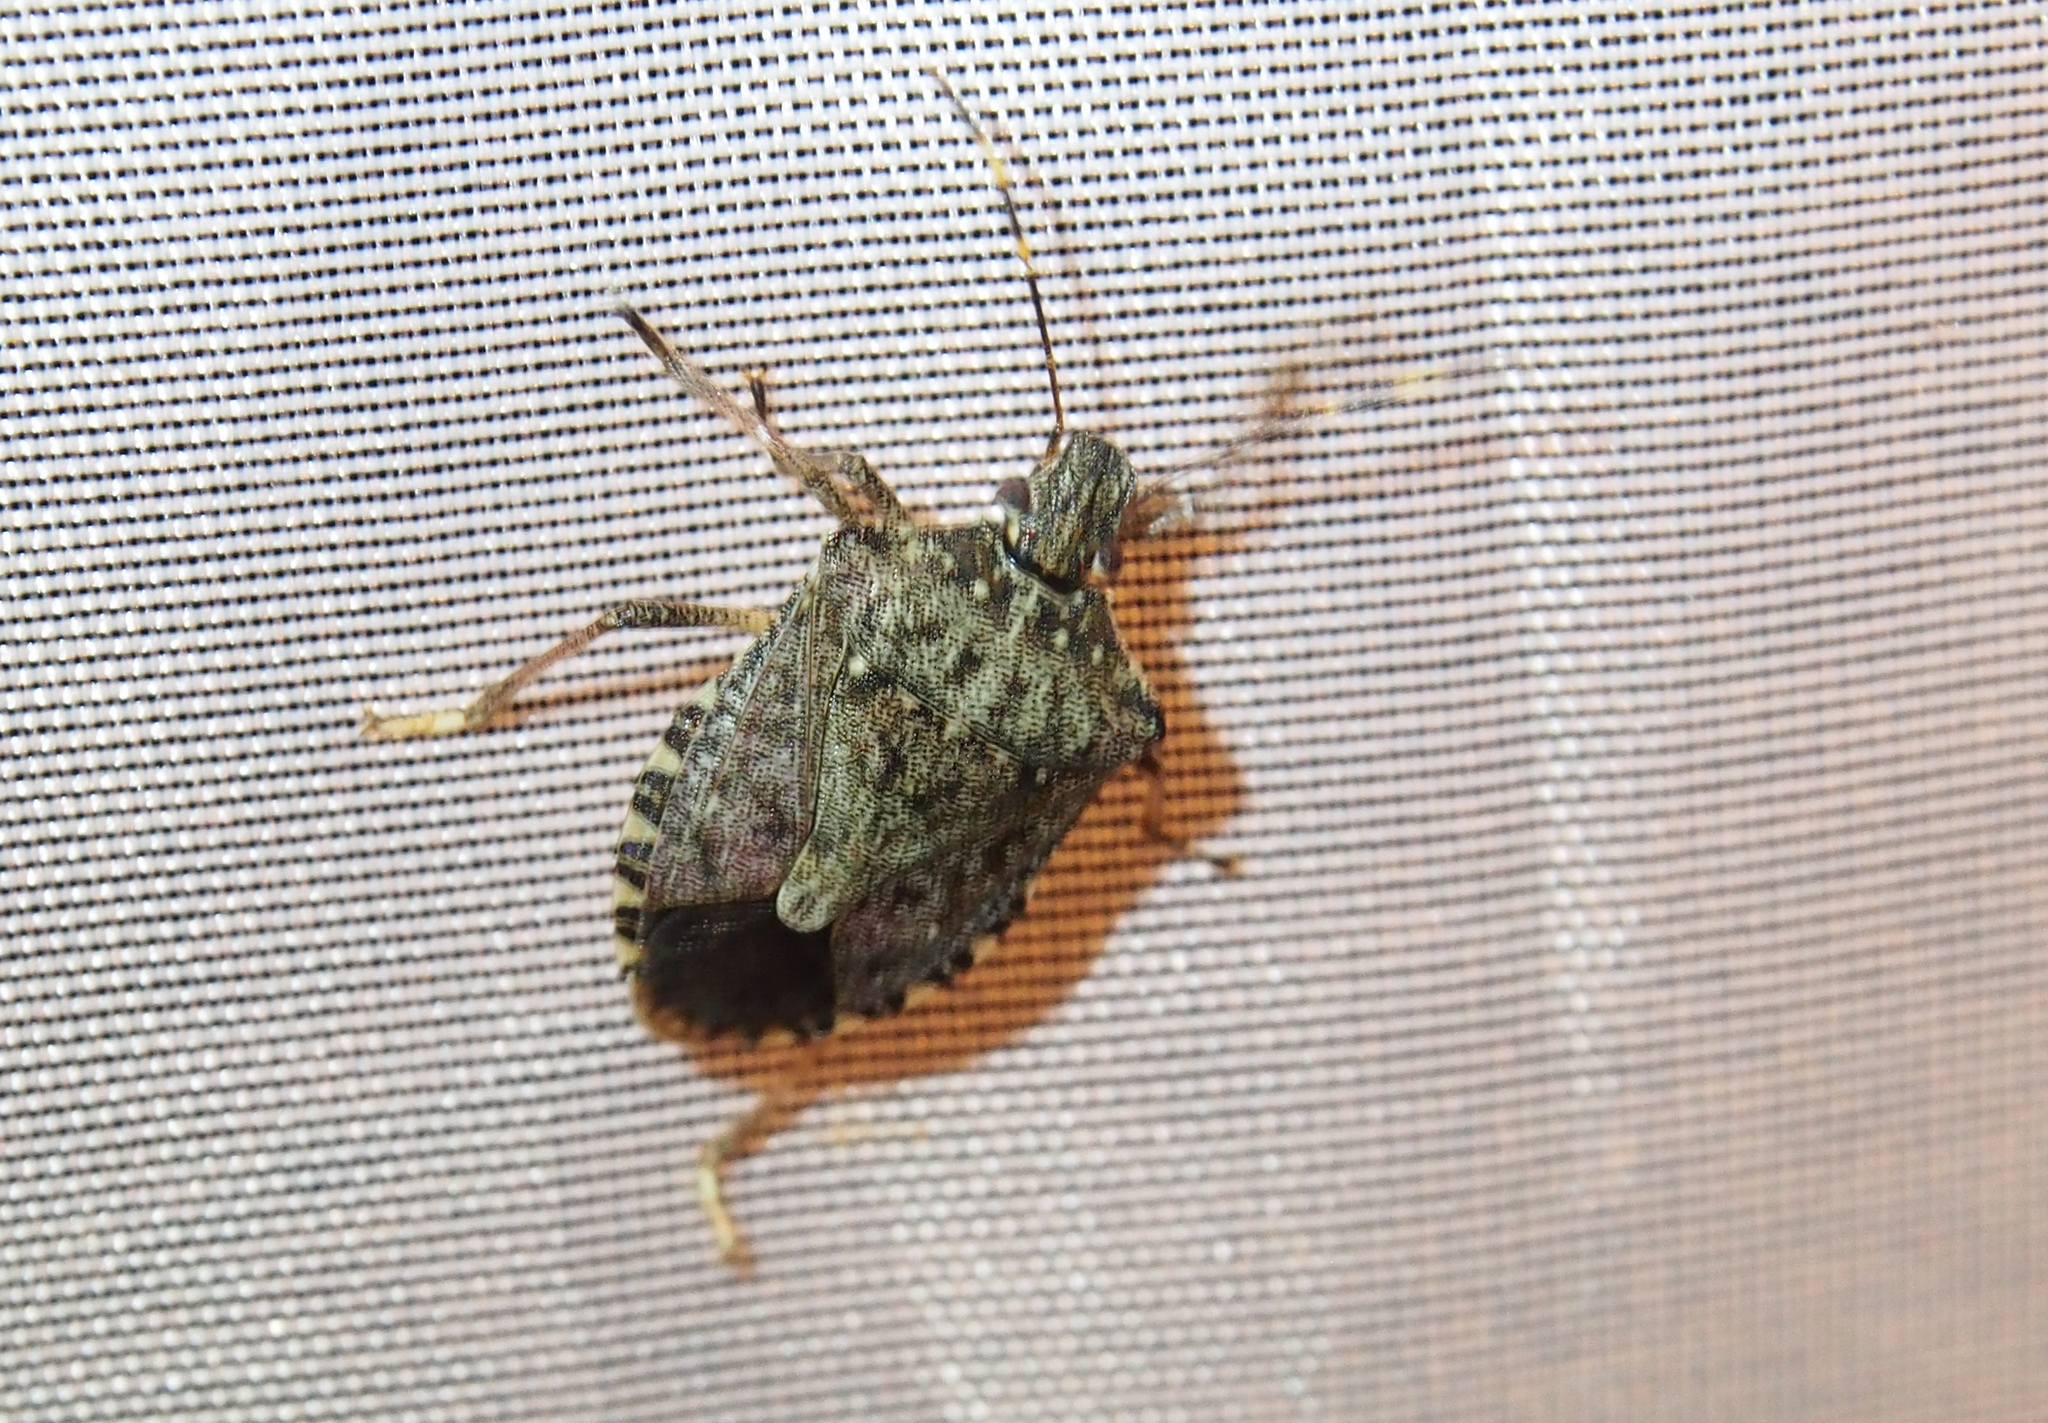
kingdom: Animalia
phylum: Arthropoda
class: Insecta
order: Hemiptera
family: Pentatomidae
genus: Halyomorpha
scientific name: Halyomorpha halys
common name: Brown marmorated stink bug
